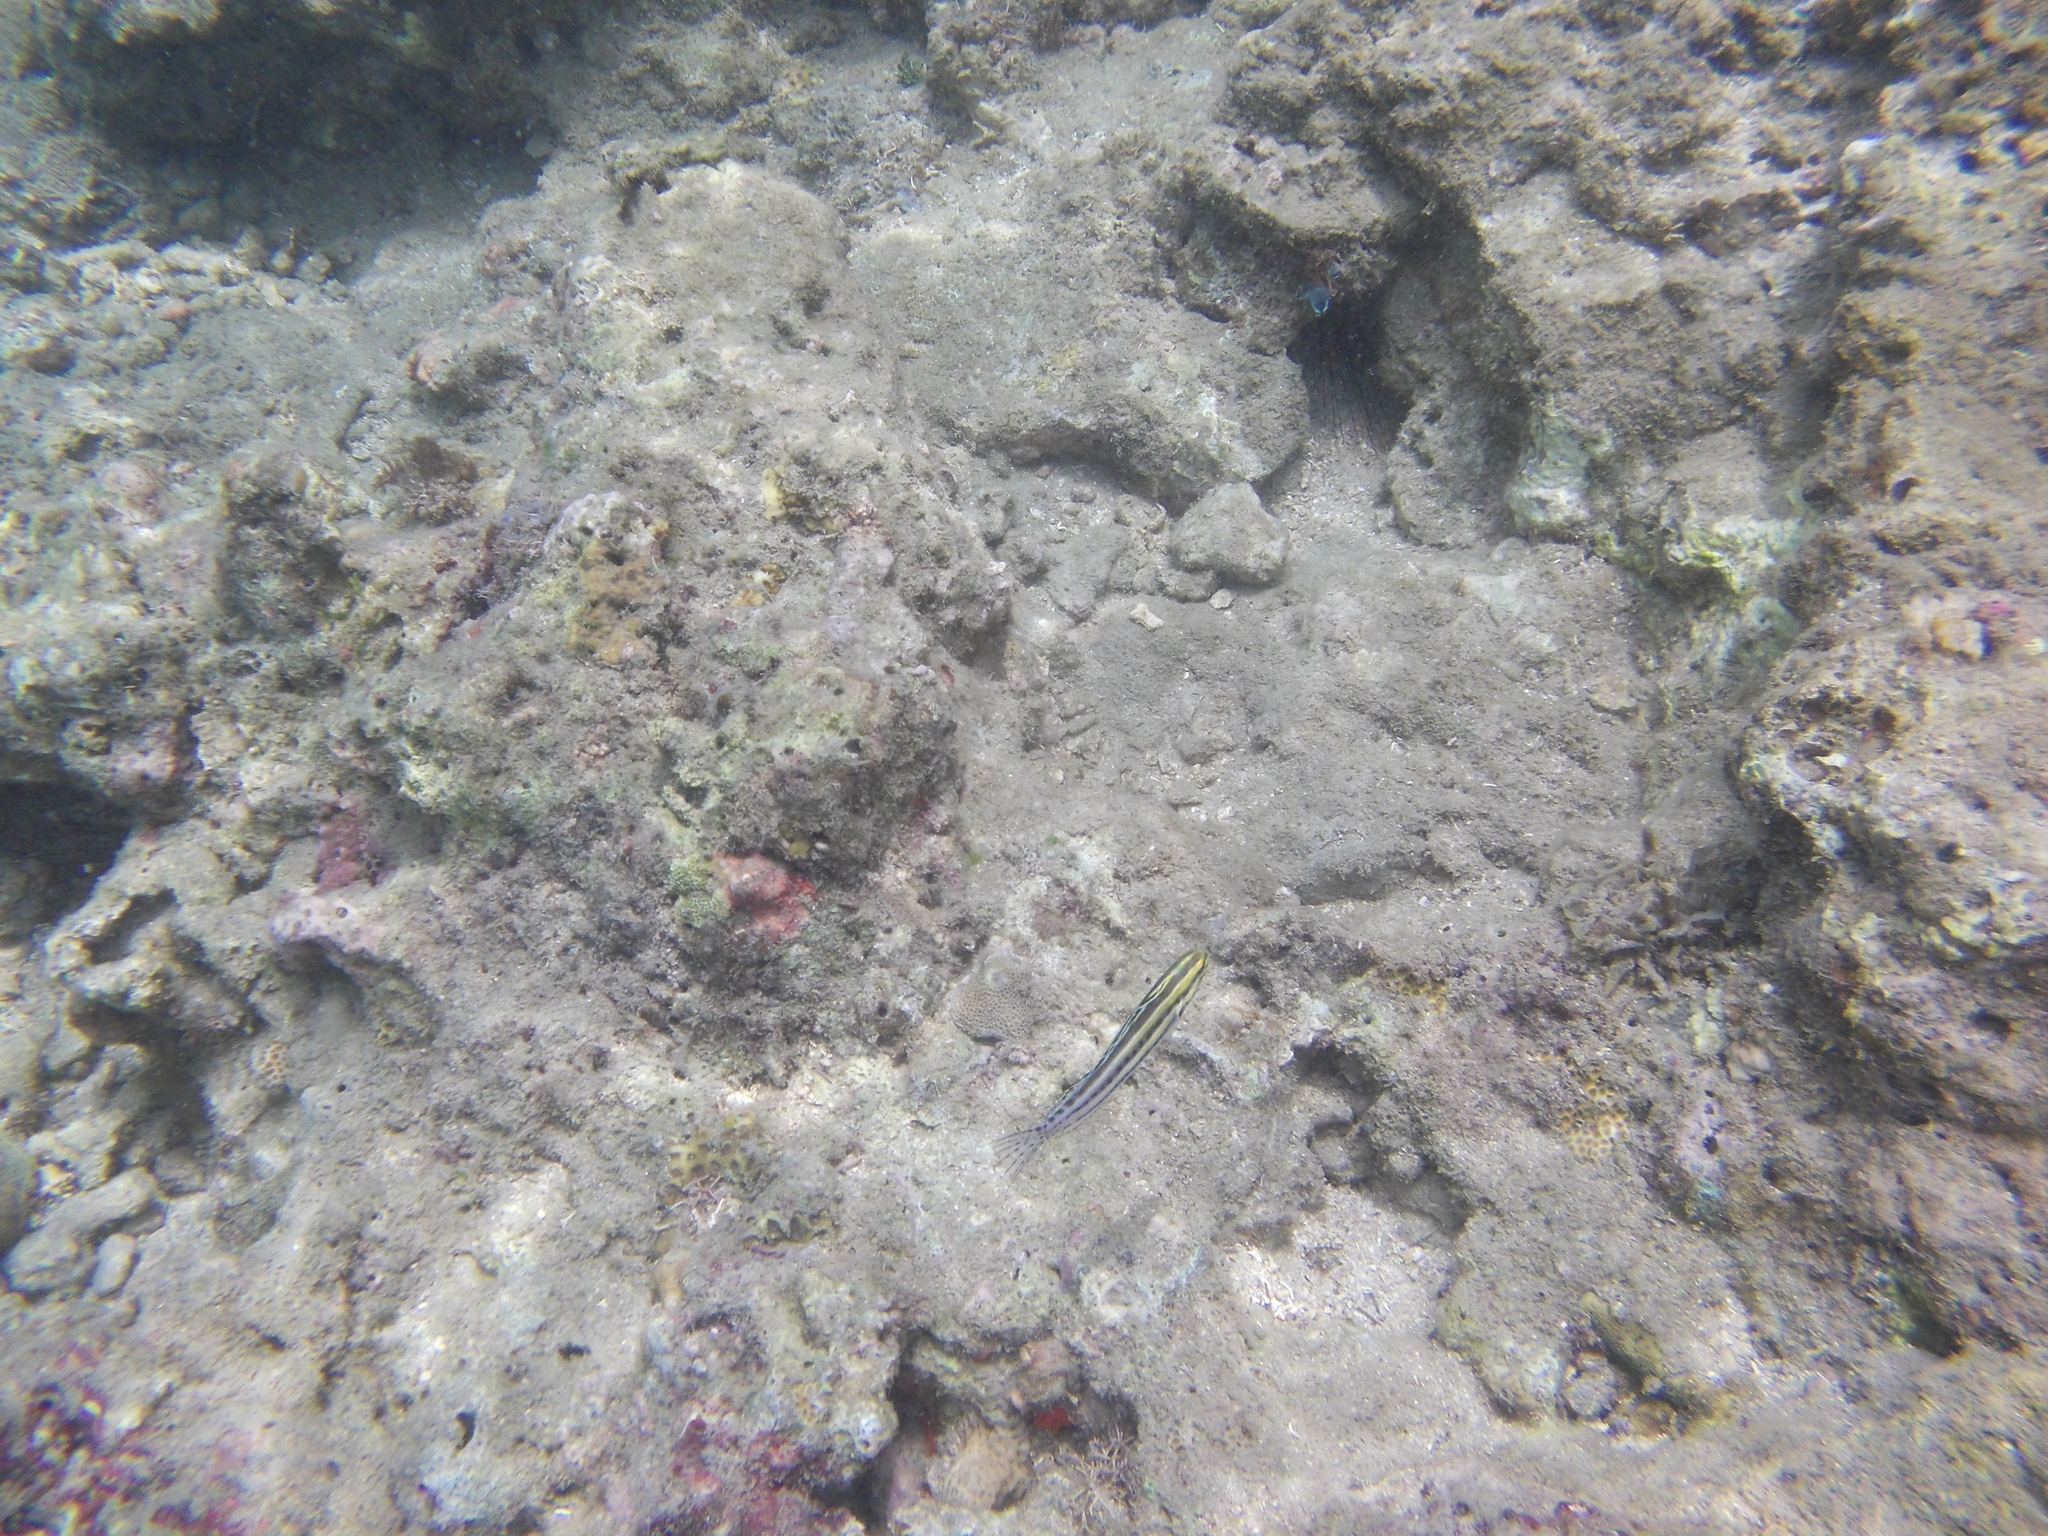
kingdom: Animalia
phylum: Chordata
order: Perciformes
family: Blenniidae
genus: Meiacanthus
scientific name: Meiacanthus grammistes
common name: Grammistes blenny
